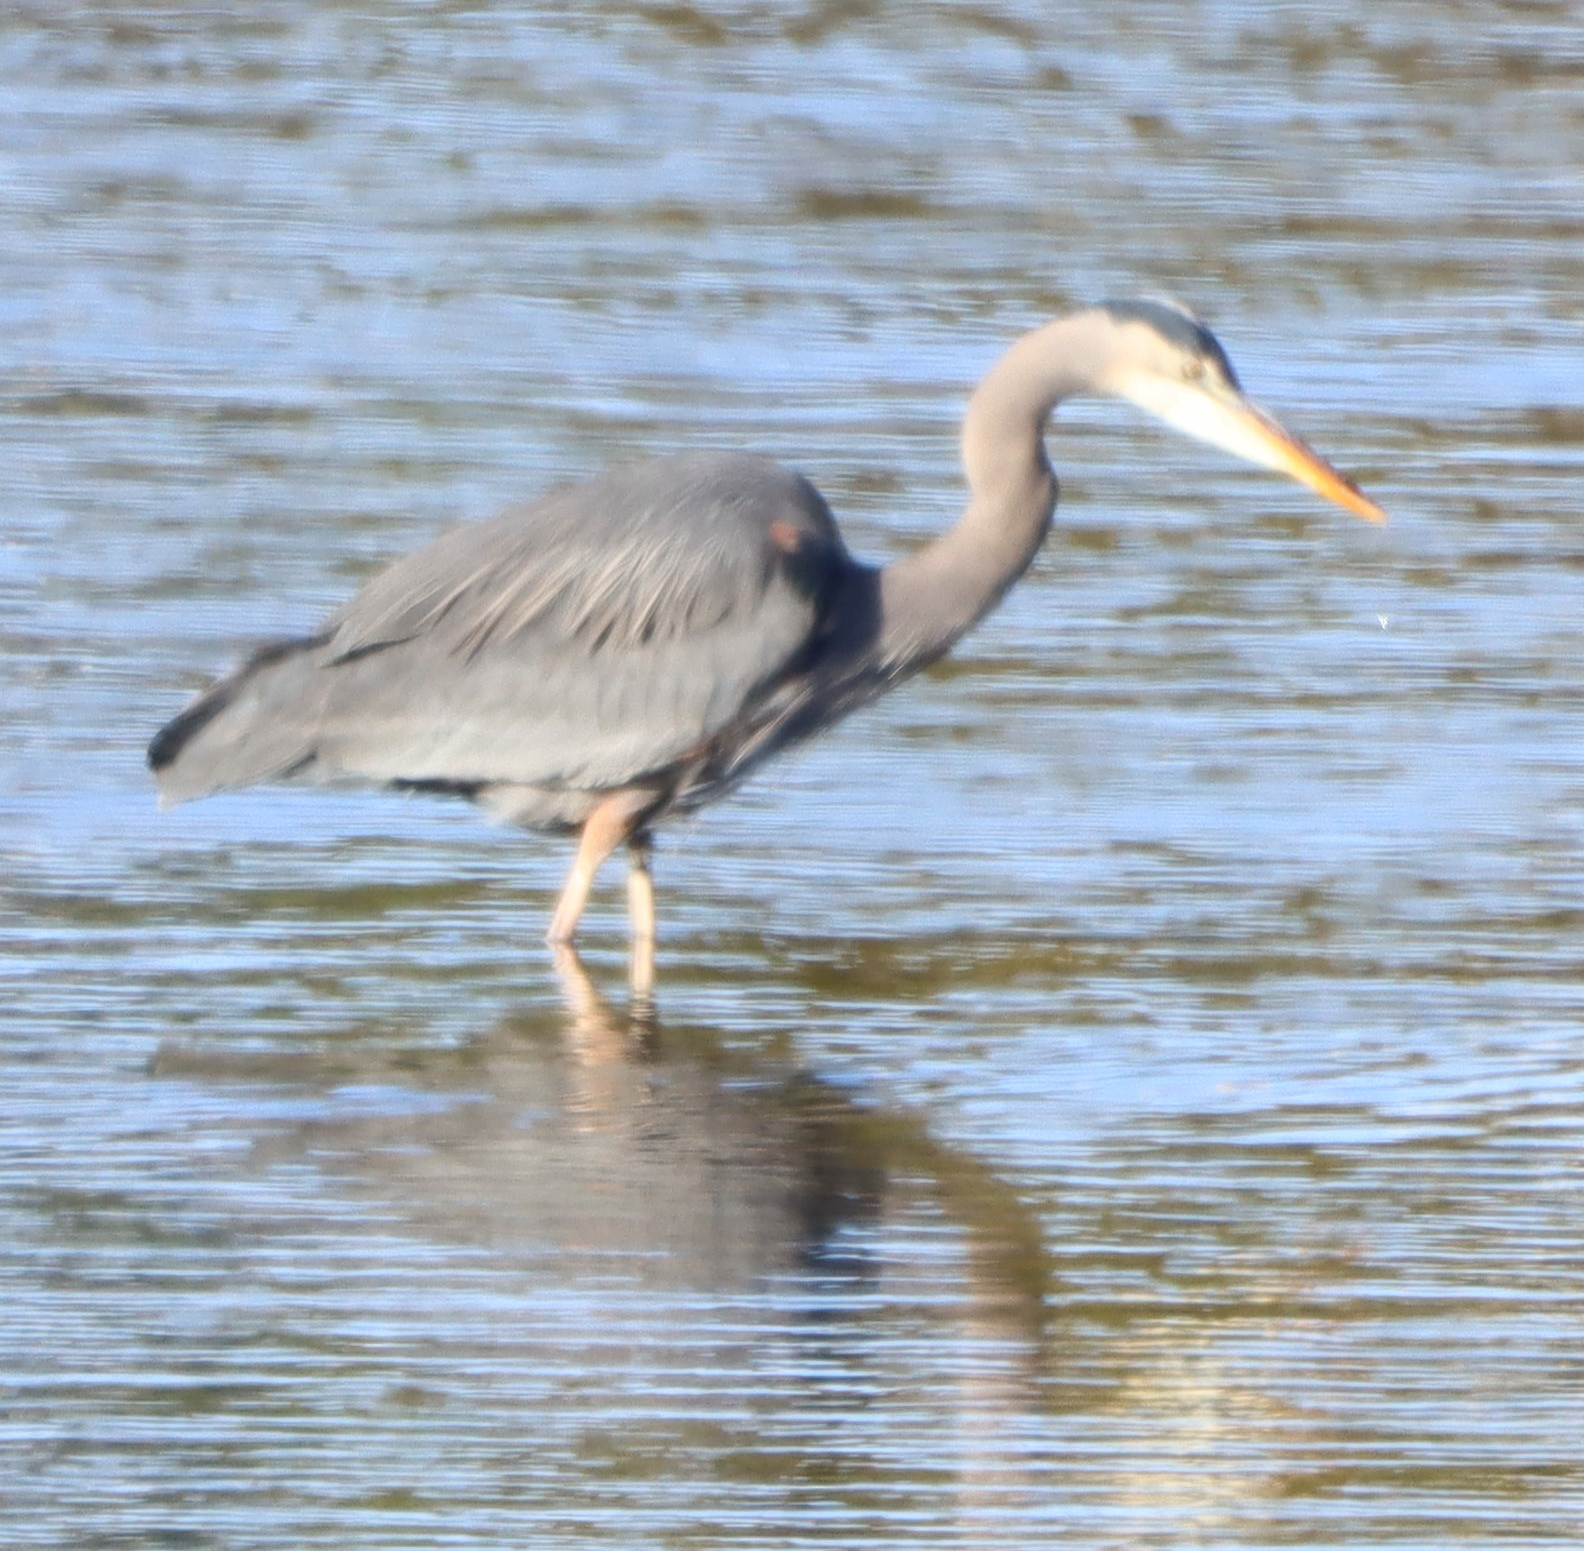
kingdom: Animalia
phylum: Chordata
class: Aves
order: Pelecaniformes
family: Ardeidae
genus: Ardea
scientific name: Ardea herodias
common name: Great blue heron
